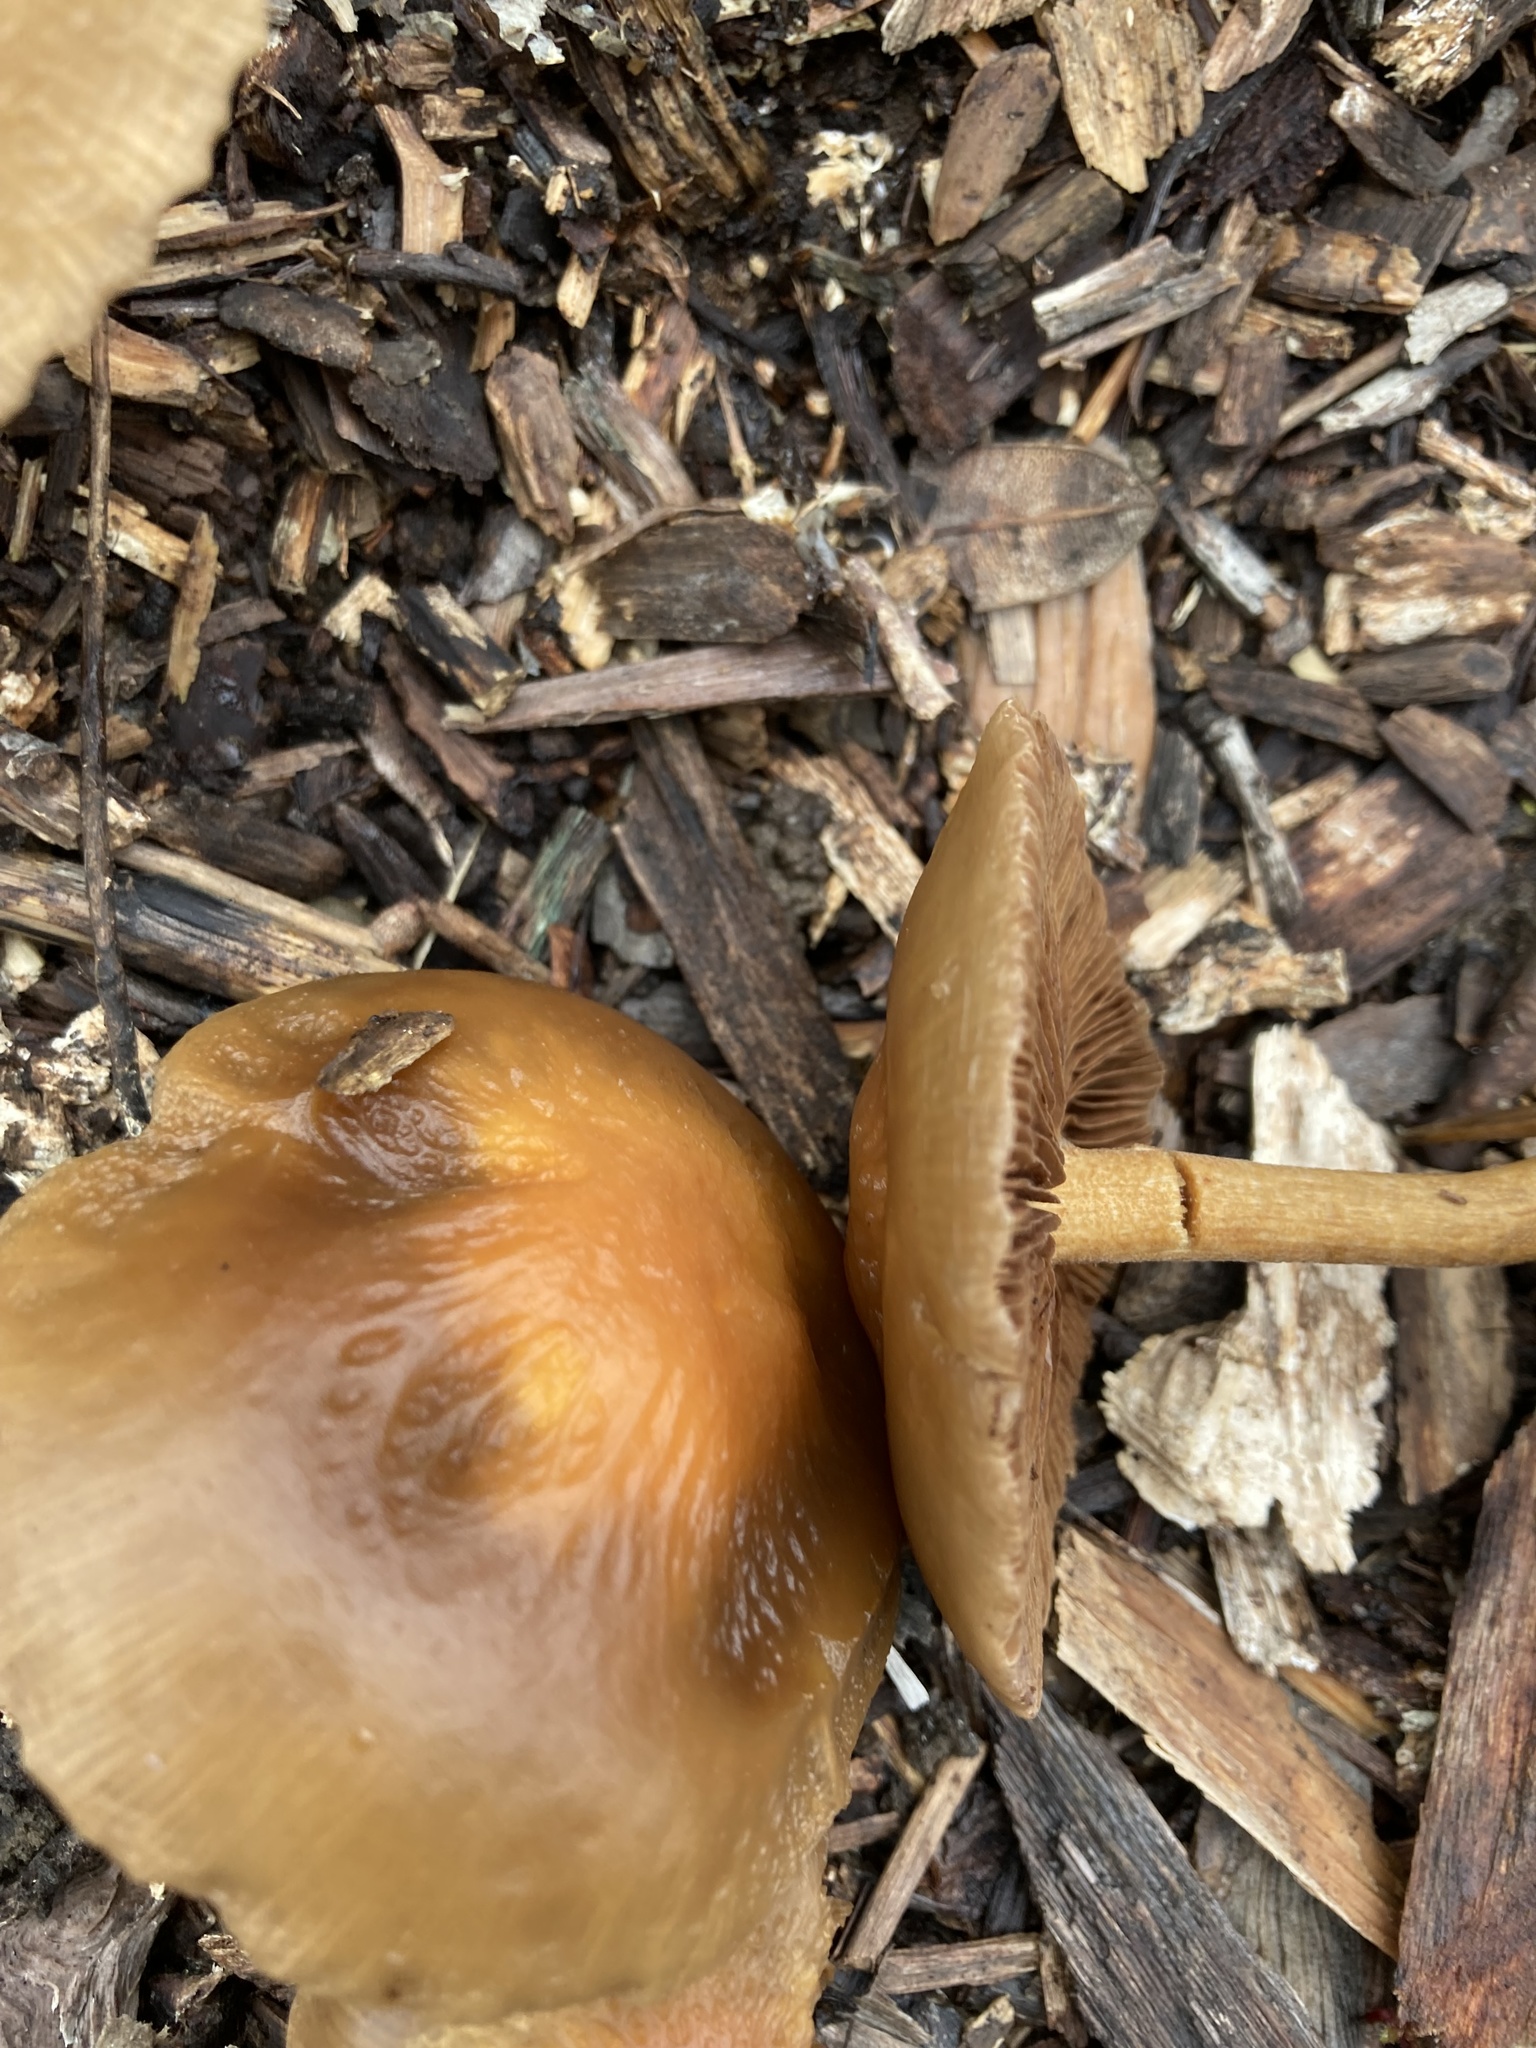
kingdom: Fungi
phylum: Basidiomycota
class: Agaricomycetes
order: Agaricales
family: Strophariaceae
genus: Agrocybe
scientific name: Agrocybe putaminum
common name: Mulch fieldcap
